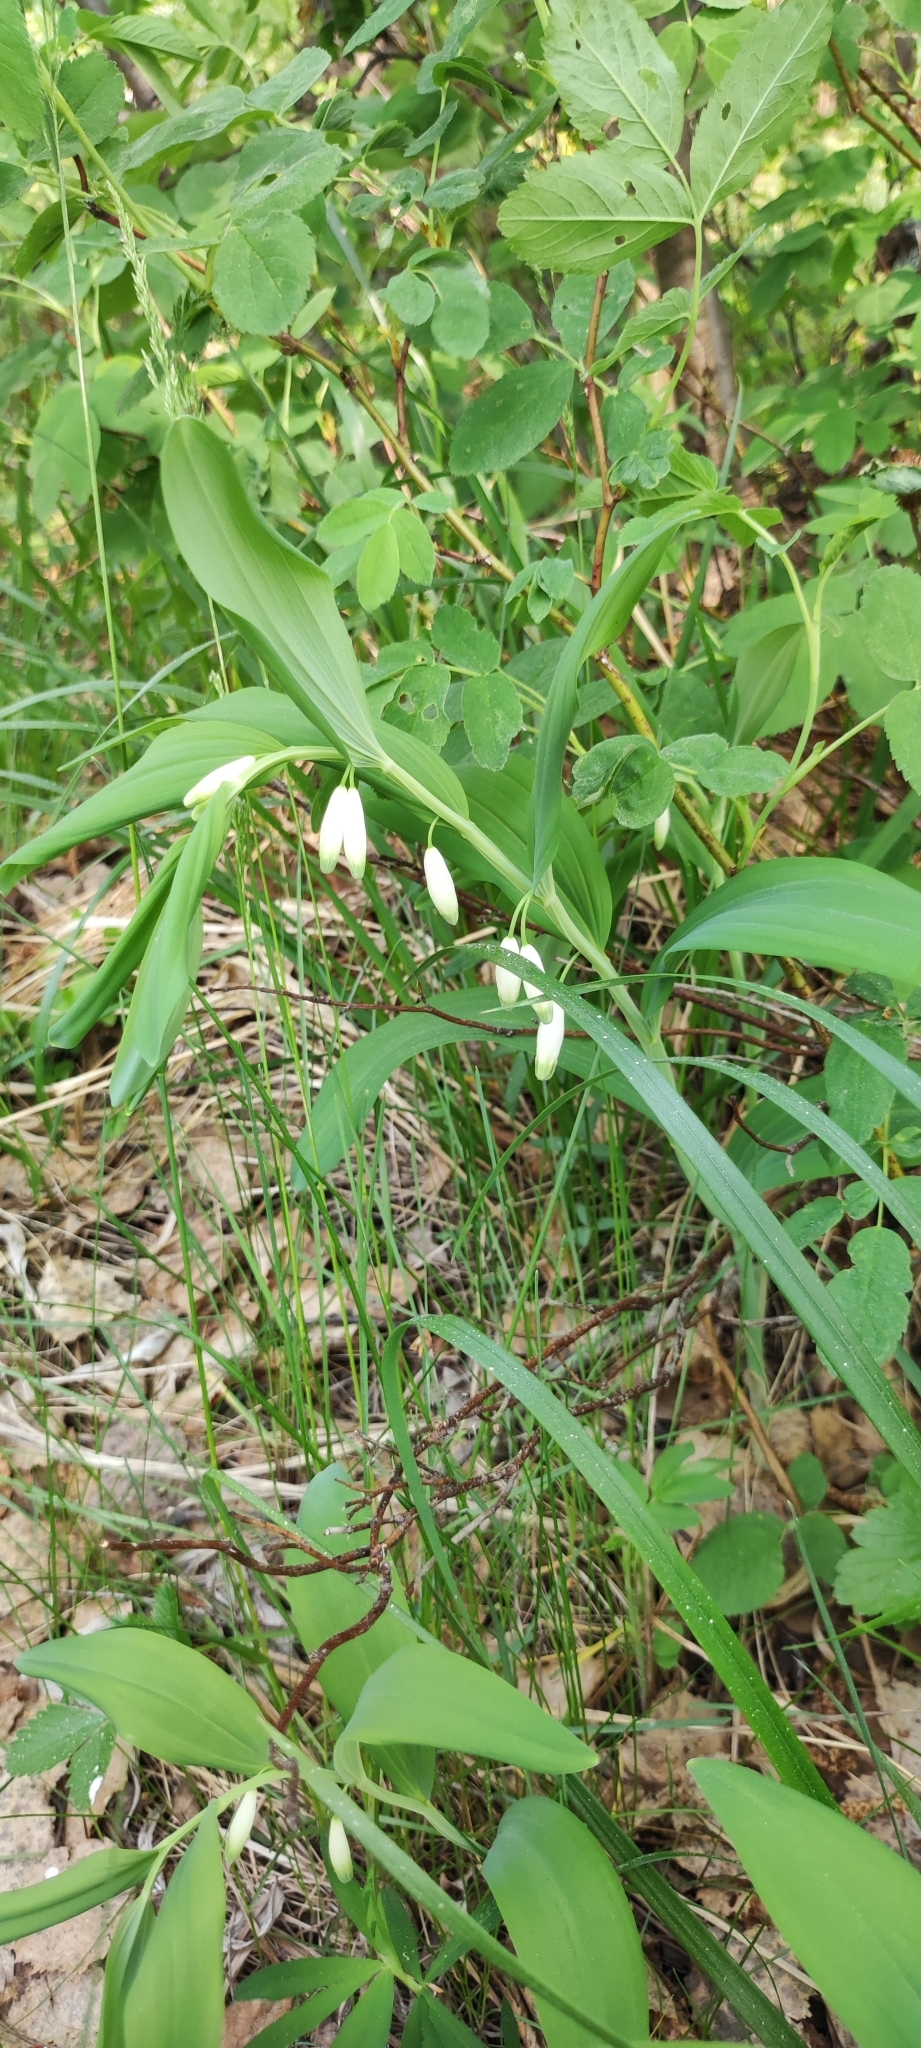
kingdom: Plantae
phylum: Tracheophyta
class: Liliopsida
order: Asparagales
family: Asparagaceae
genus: Polygonatum
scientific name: Polygonatum odoratum
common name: Angular solomon's-seal
